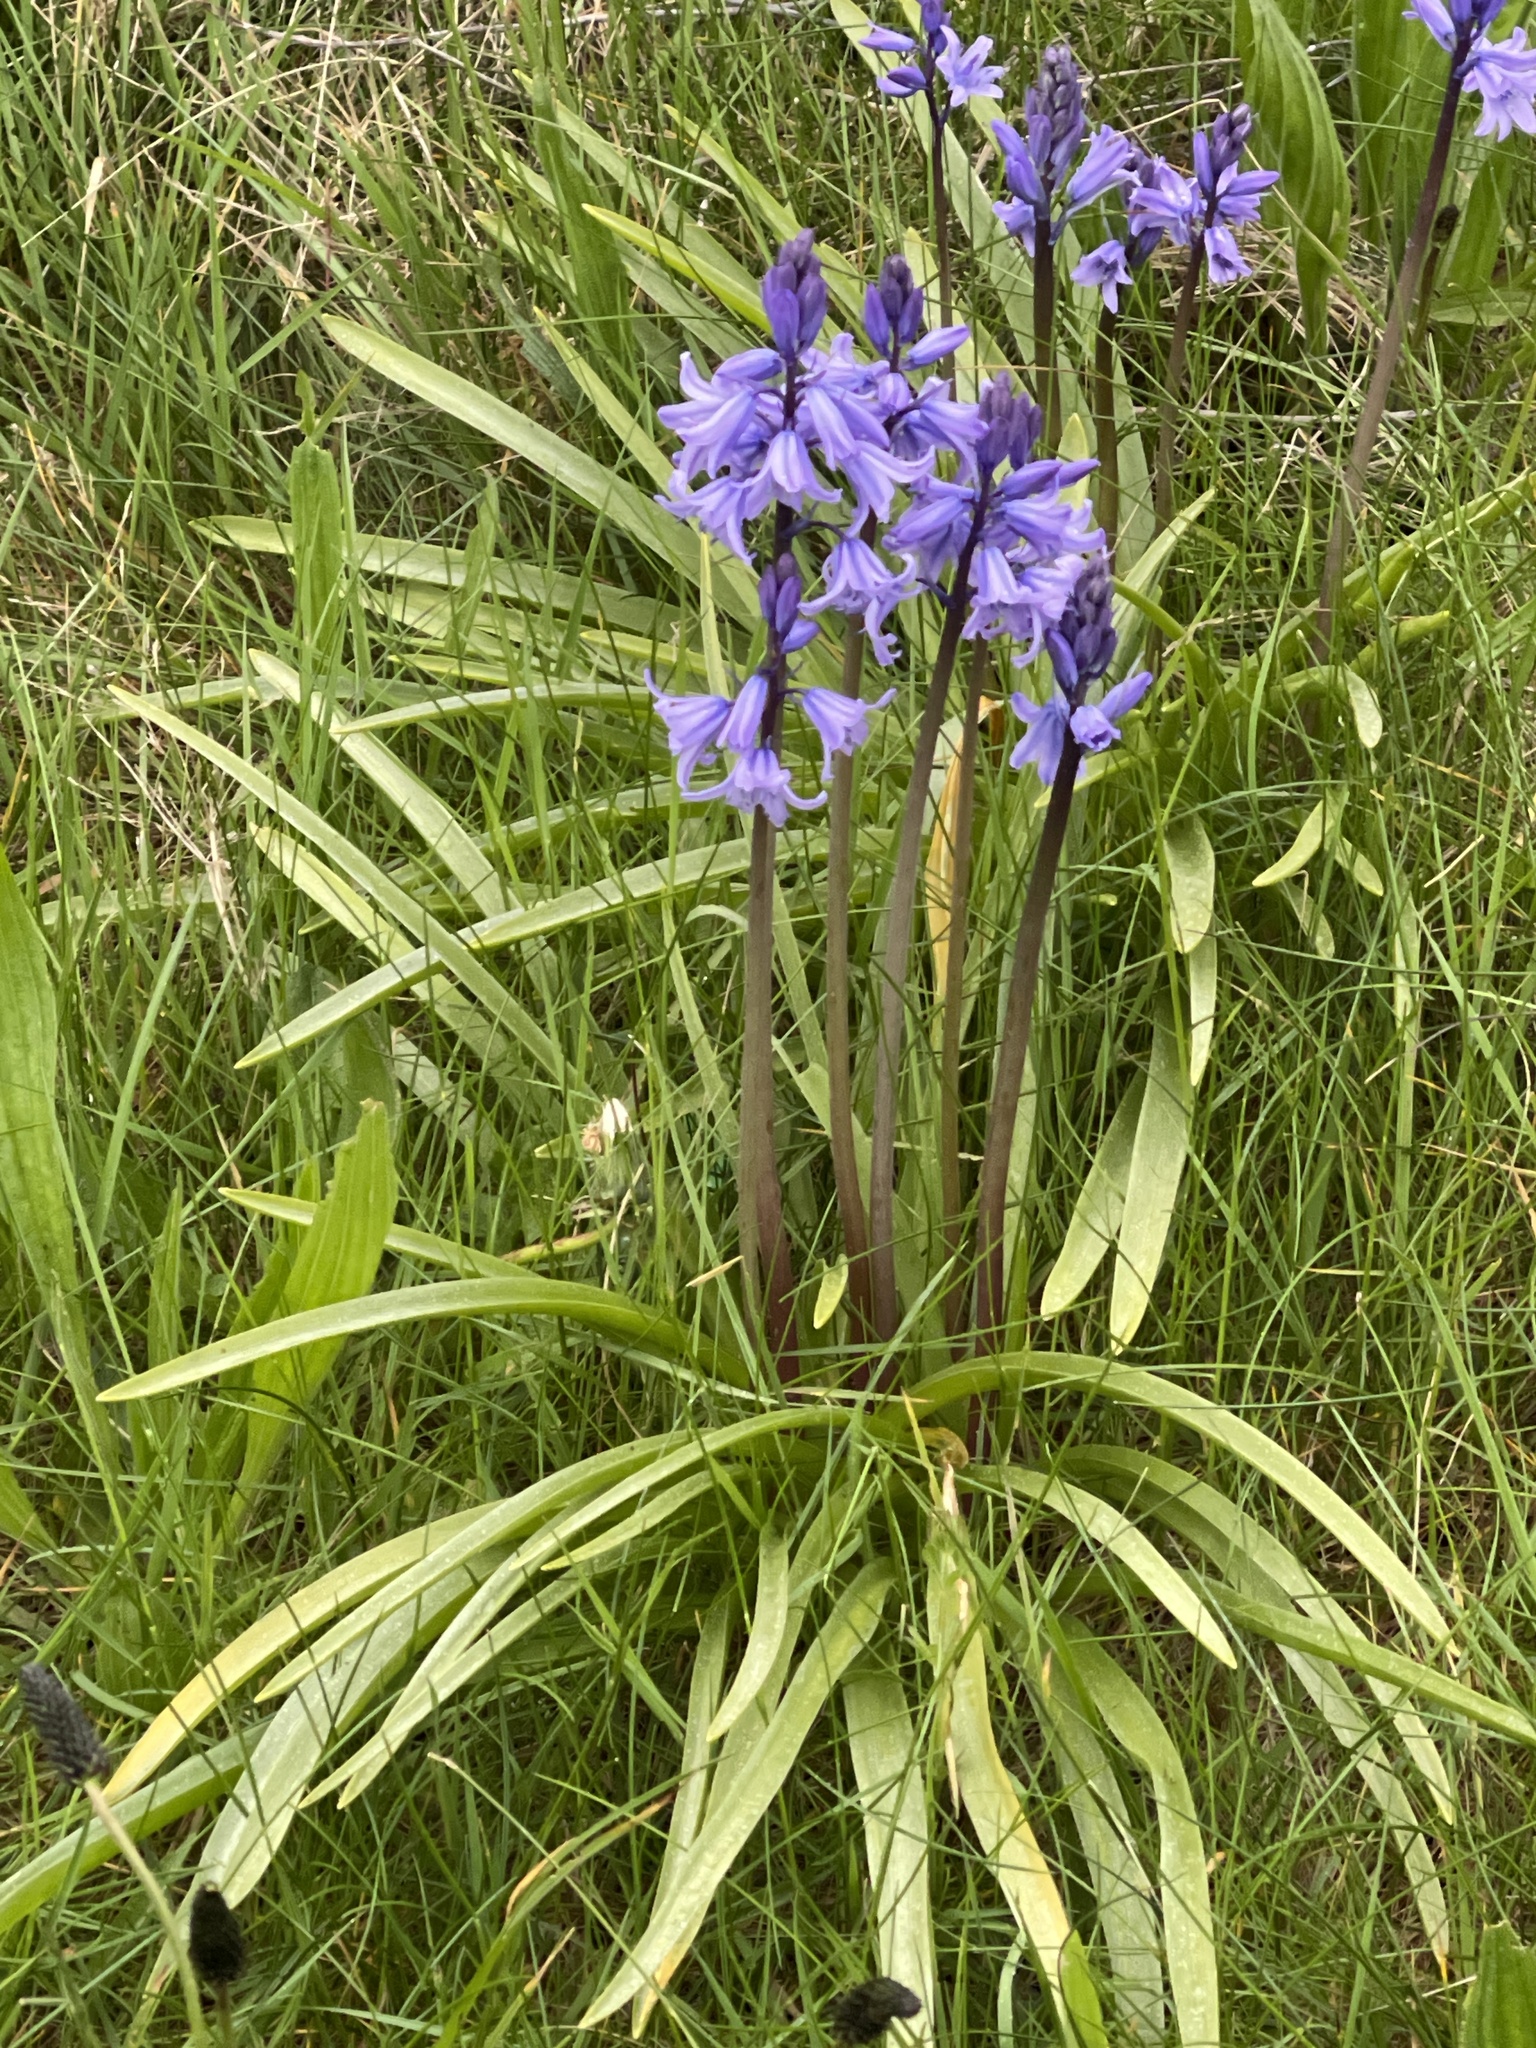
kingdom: Plantae
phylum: Tracheophyta
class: Liliopsida
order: Asparagales
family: Asparagaceae
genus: Hyacinthoides
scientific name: Hyacinthoides massartiana
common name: Hyacinthoides
